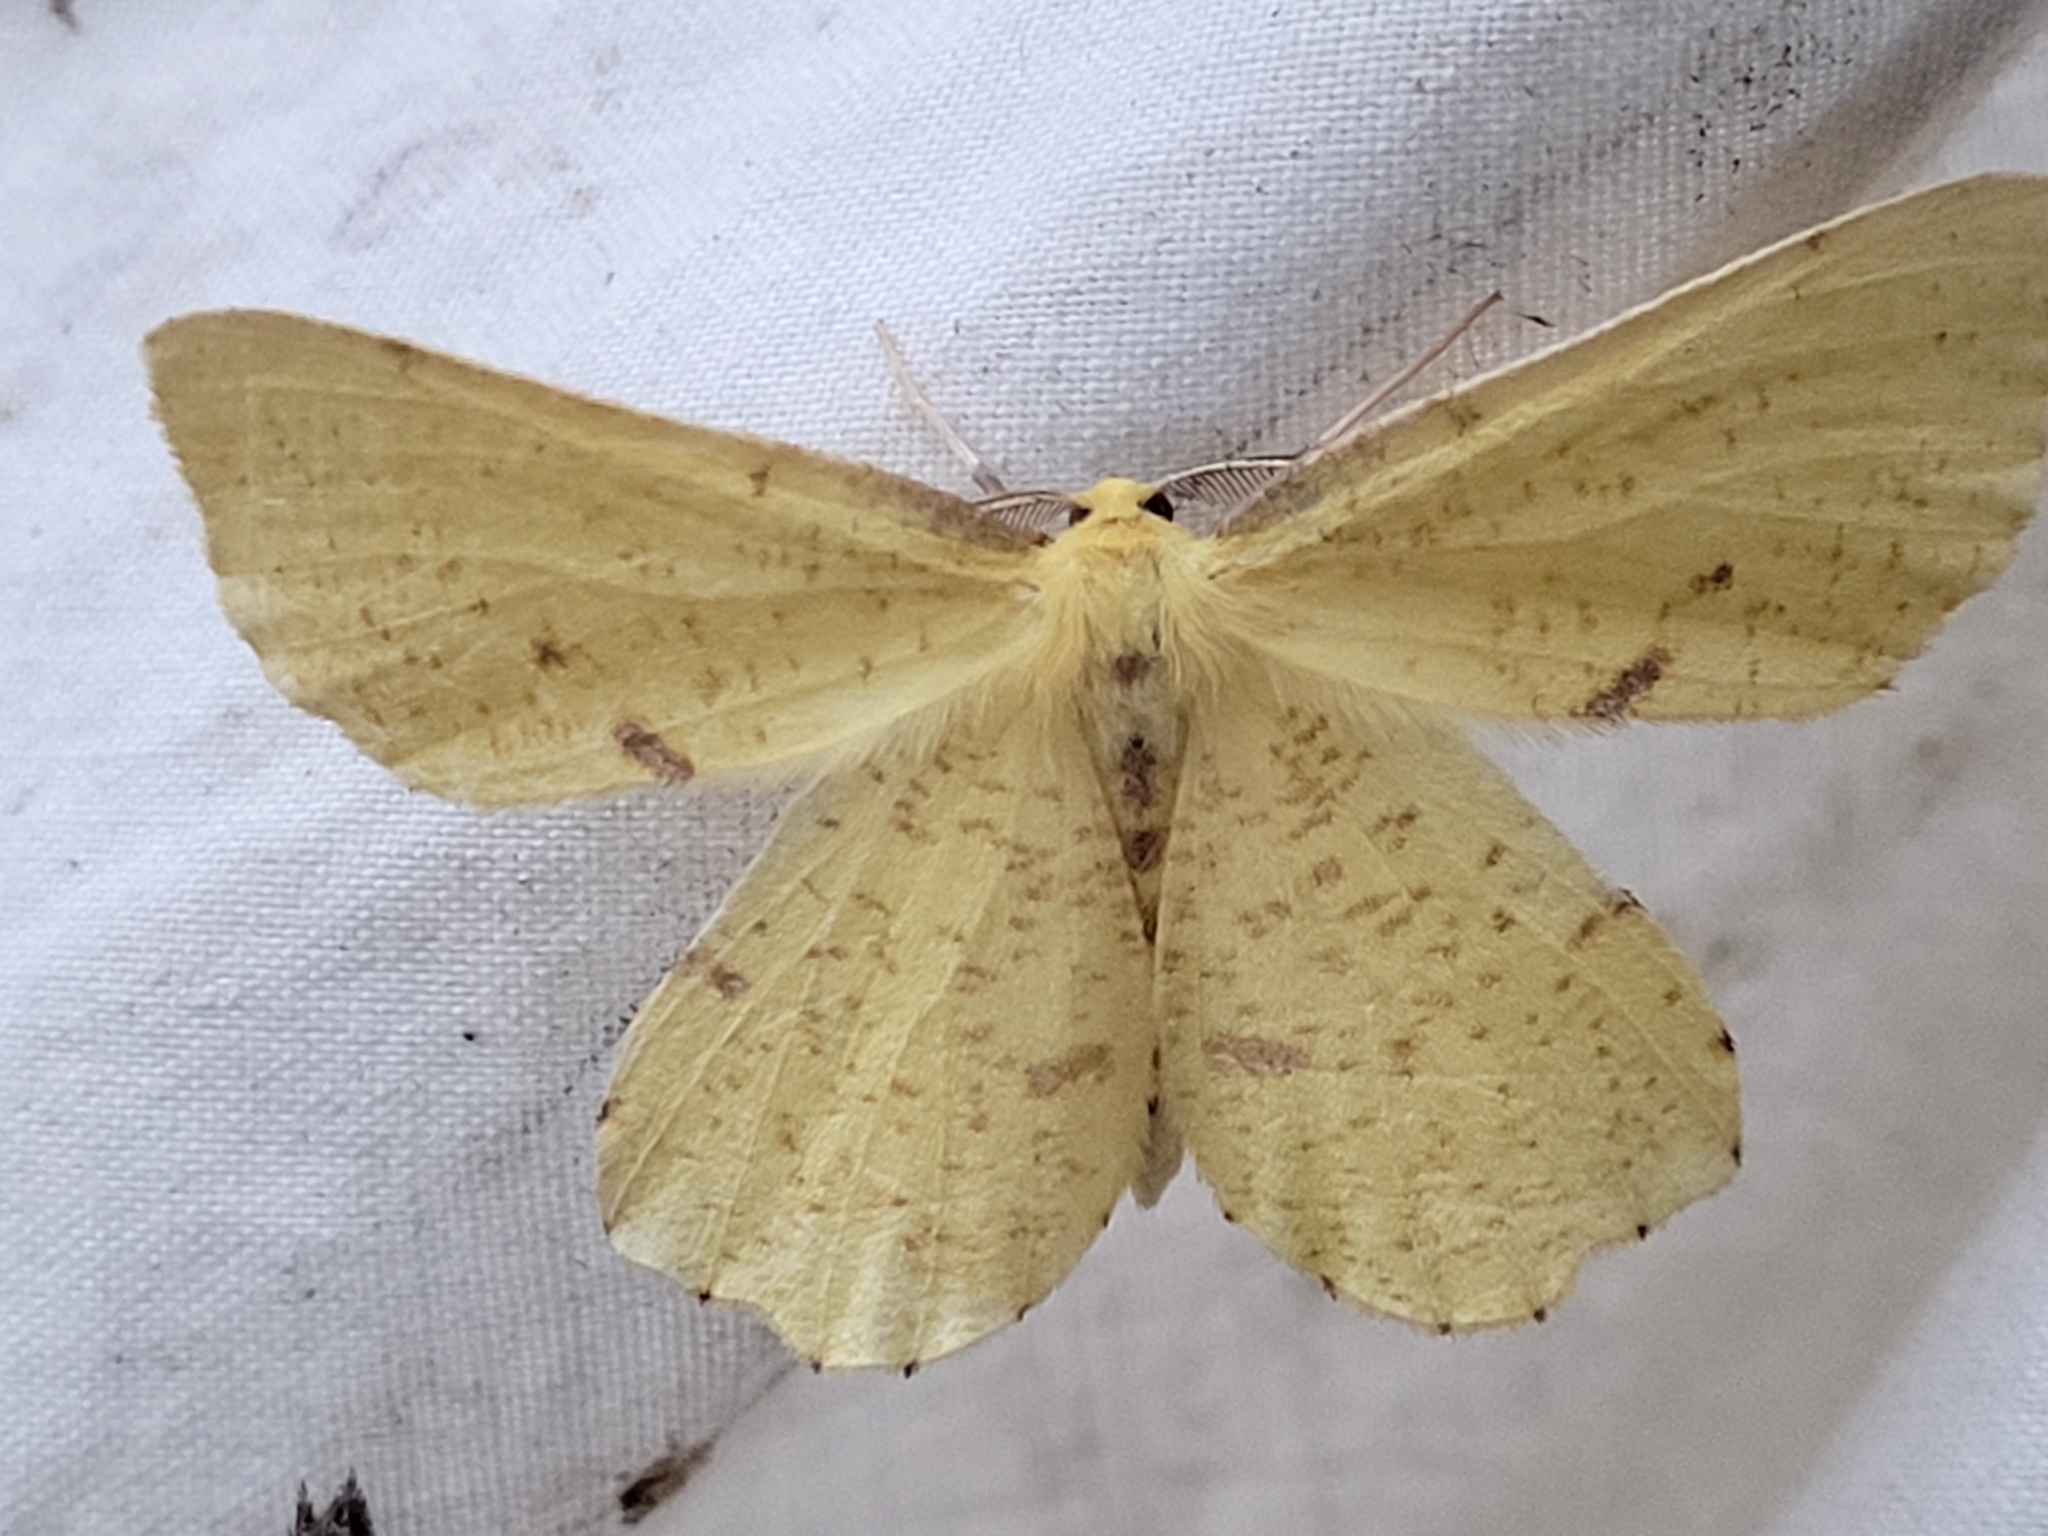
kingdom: Animalia
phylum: Arthropoda
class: Insecta
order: Lepidoptera
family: Geometridae
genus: Xanthotype
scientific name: Xanthotype
